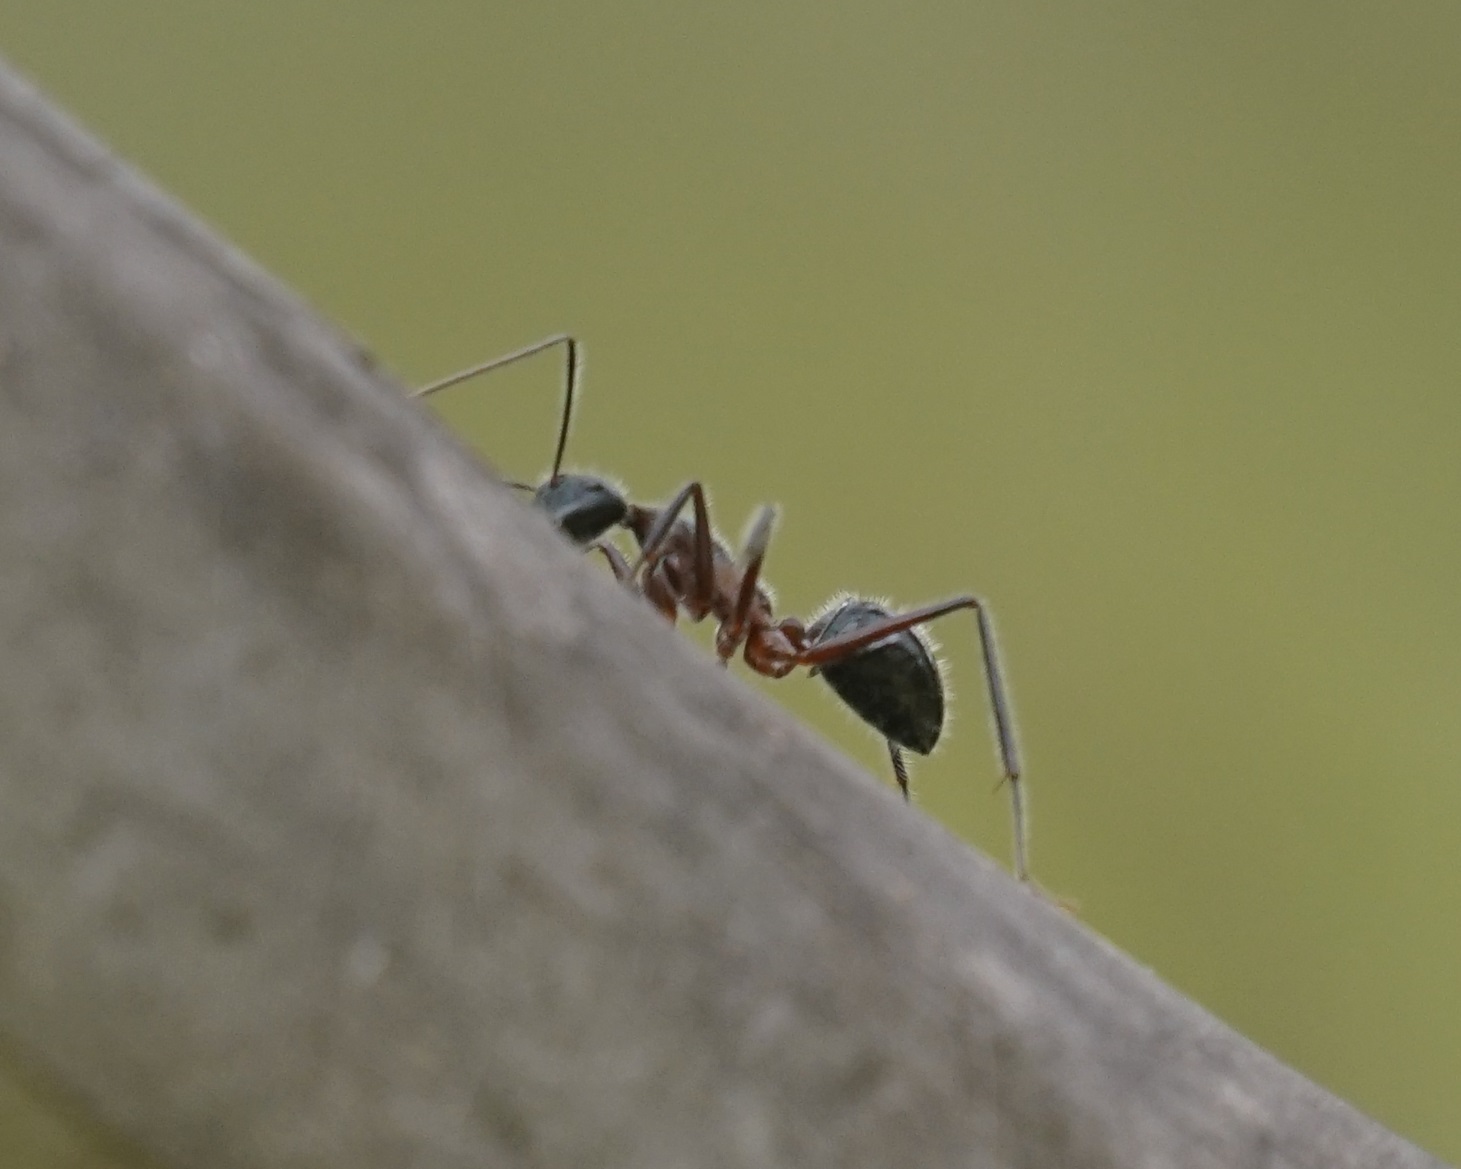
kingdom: Animalia
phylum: Arthropoda
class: Insecta
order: Hymenoptera
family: Formicidae
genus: Camponotus
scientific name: Camponotus intrepidus
